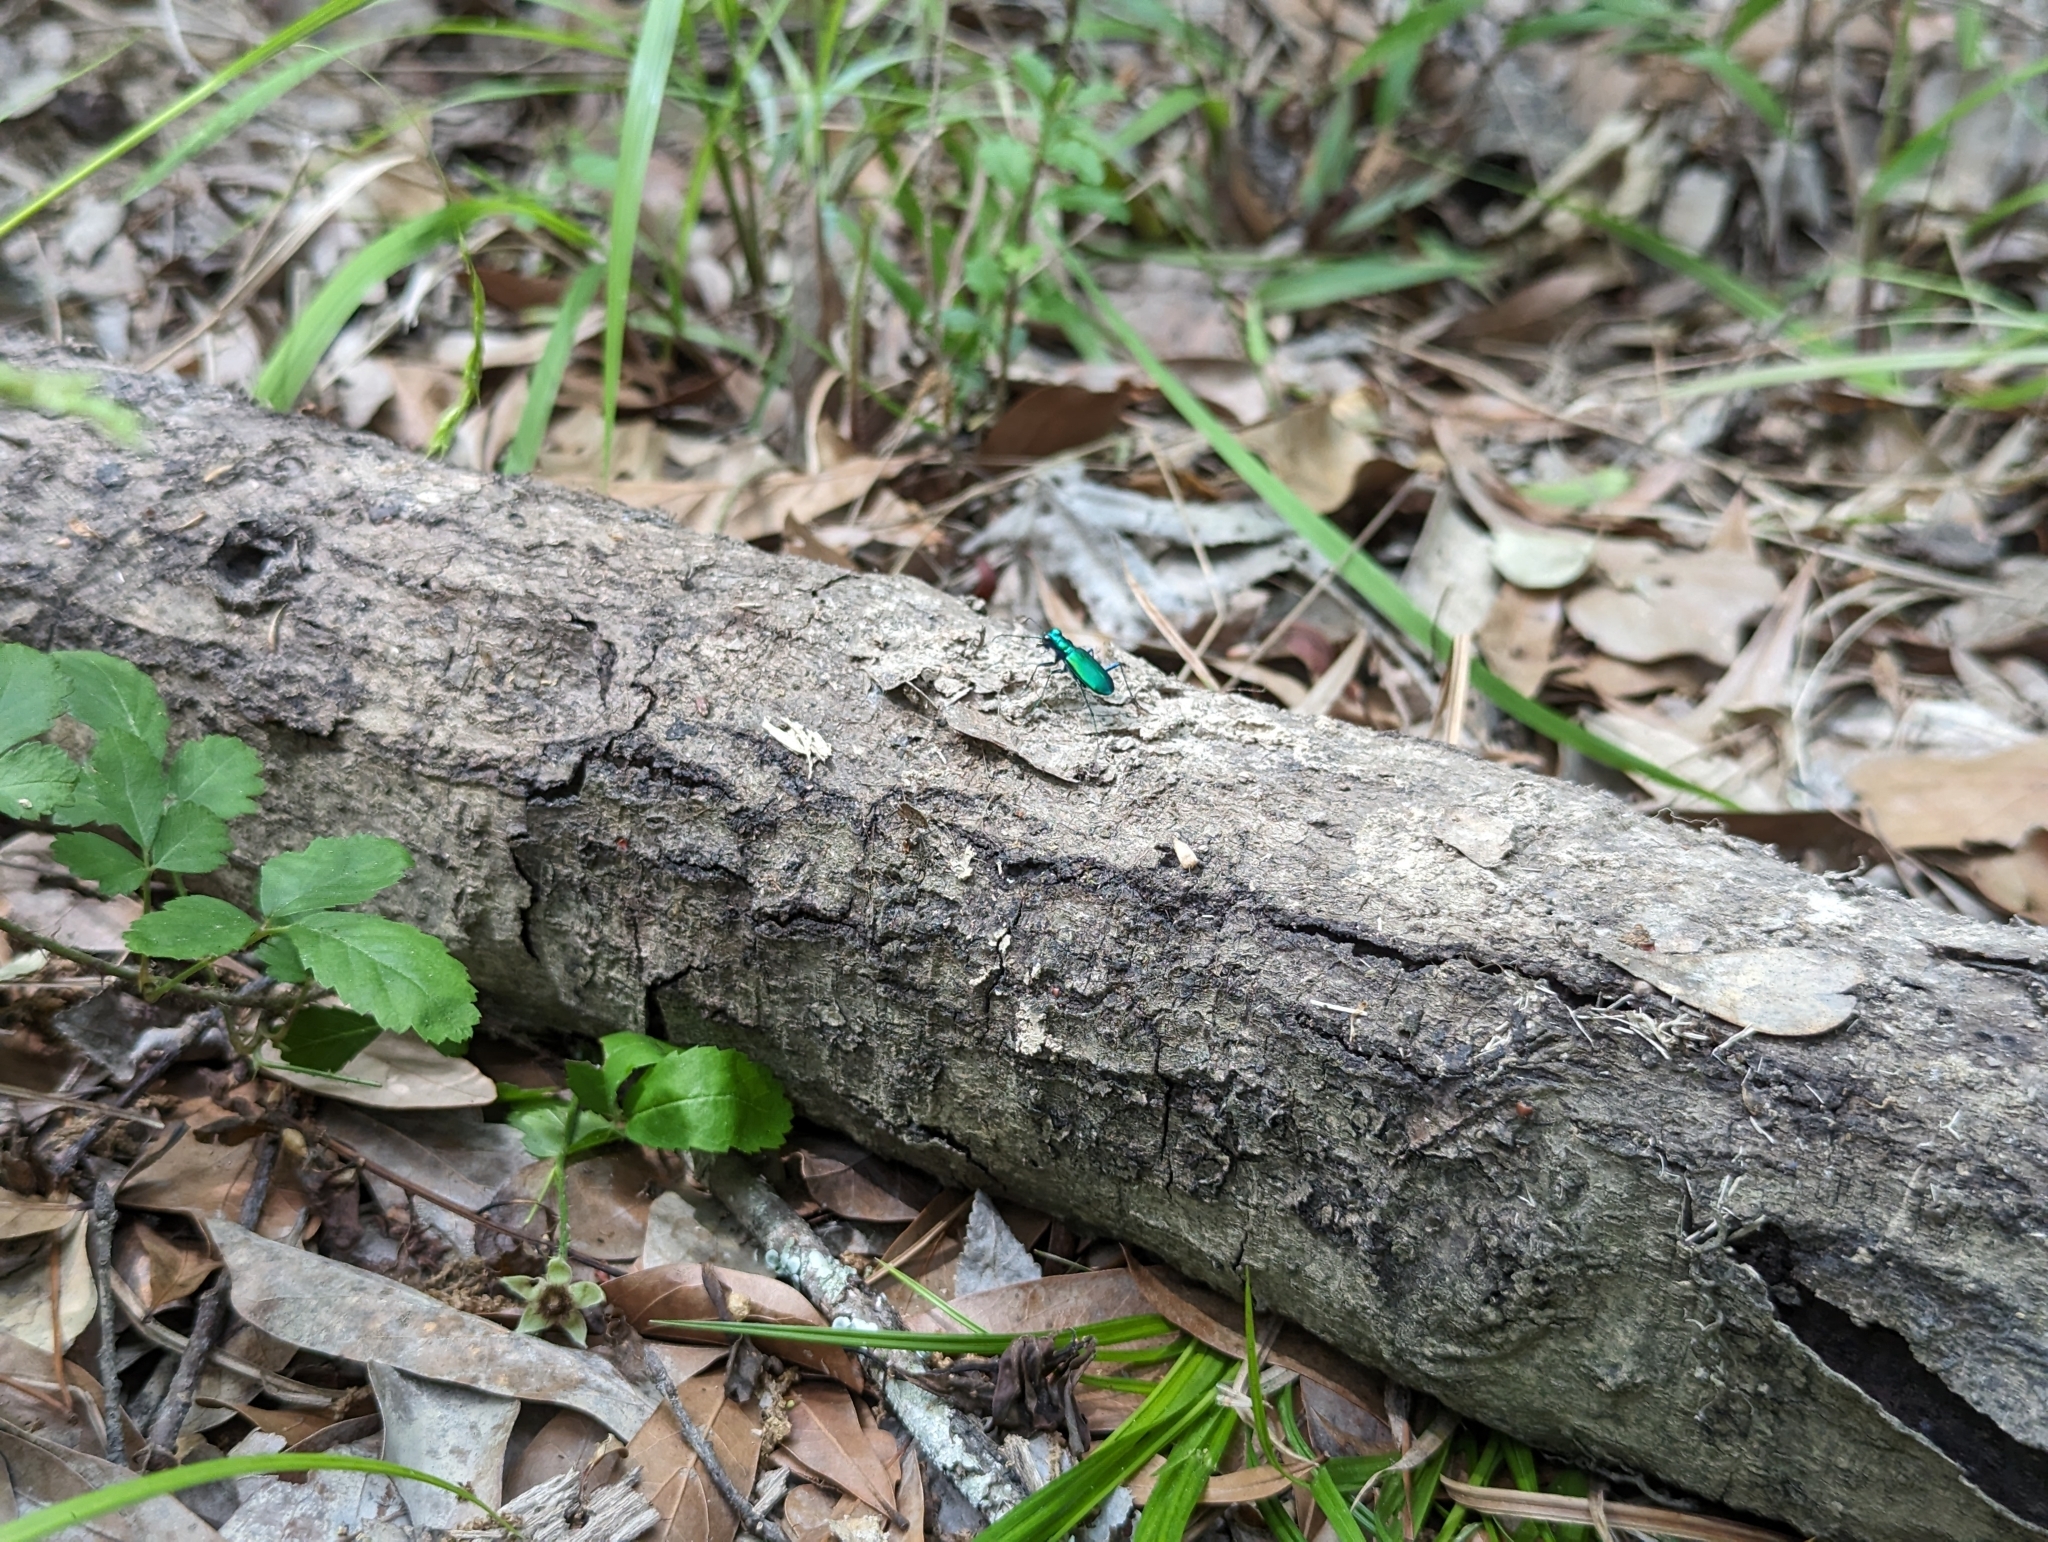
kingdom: Animalia
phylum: Arthropoda
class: Insecta
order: Coleoptera
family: Carabidae
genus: Cicindela
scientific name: Cicindela sexguttata
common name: Six-spotted tiger beetle
